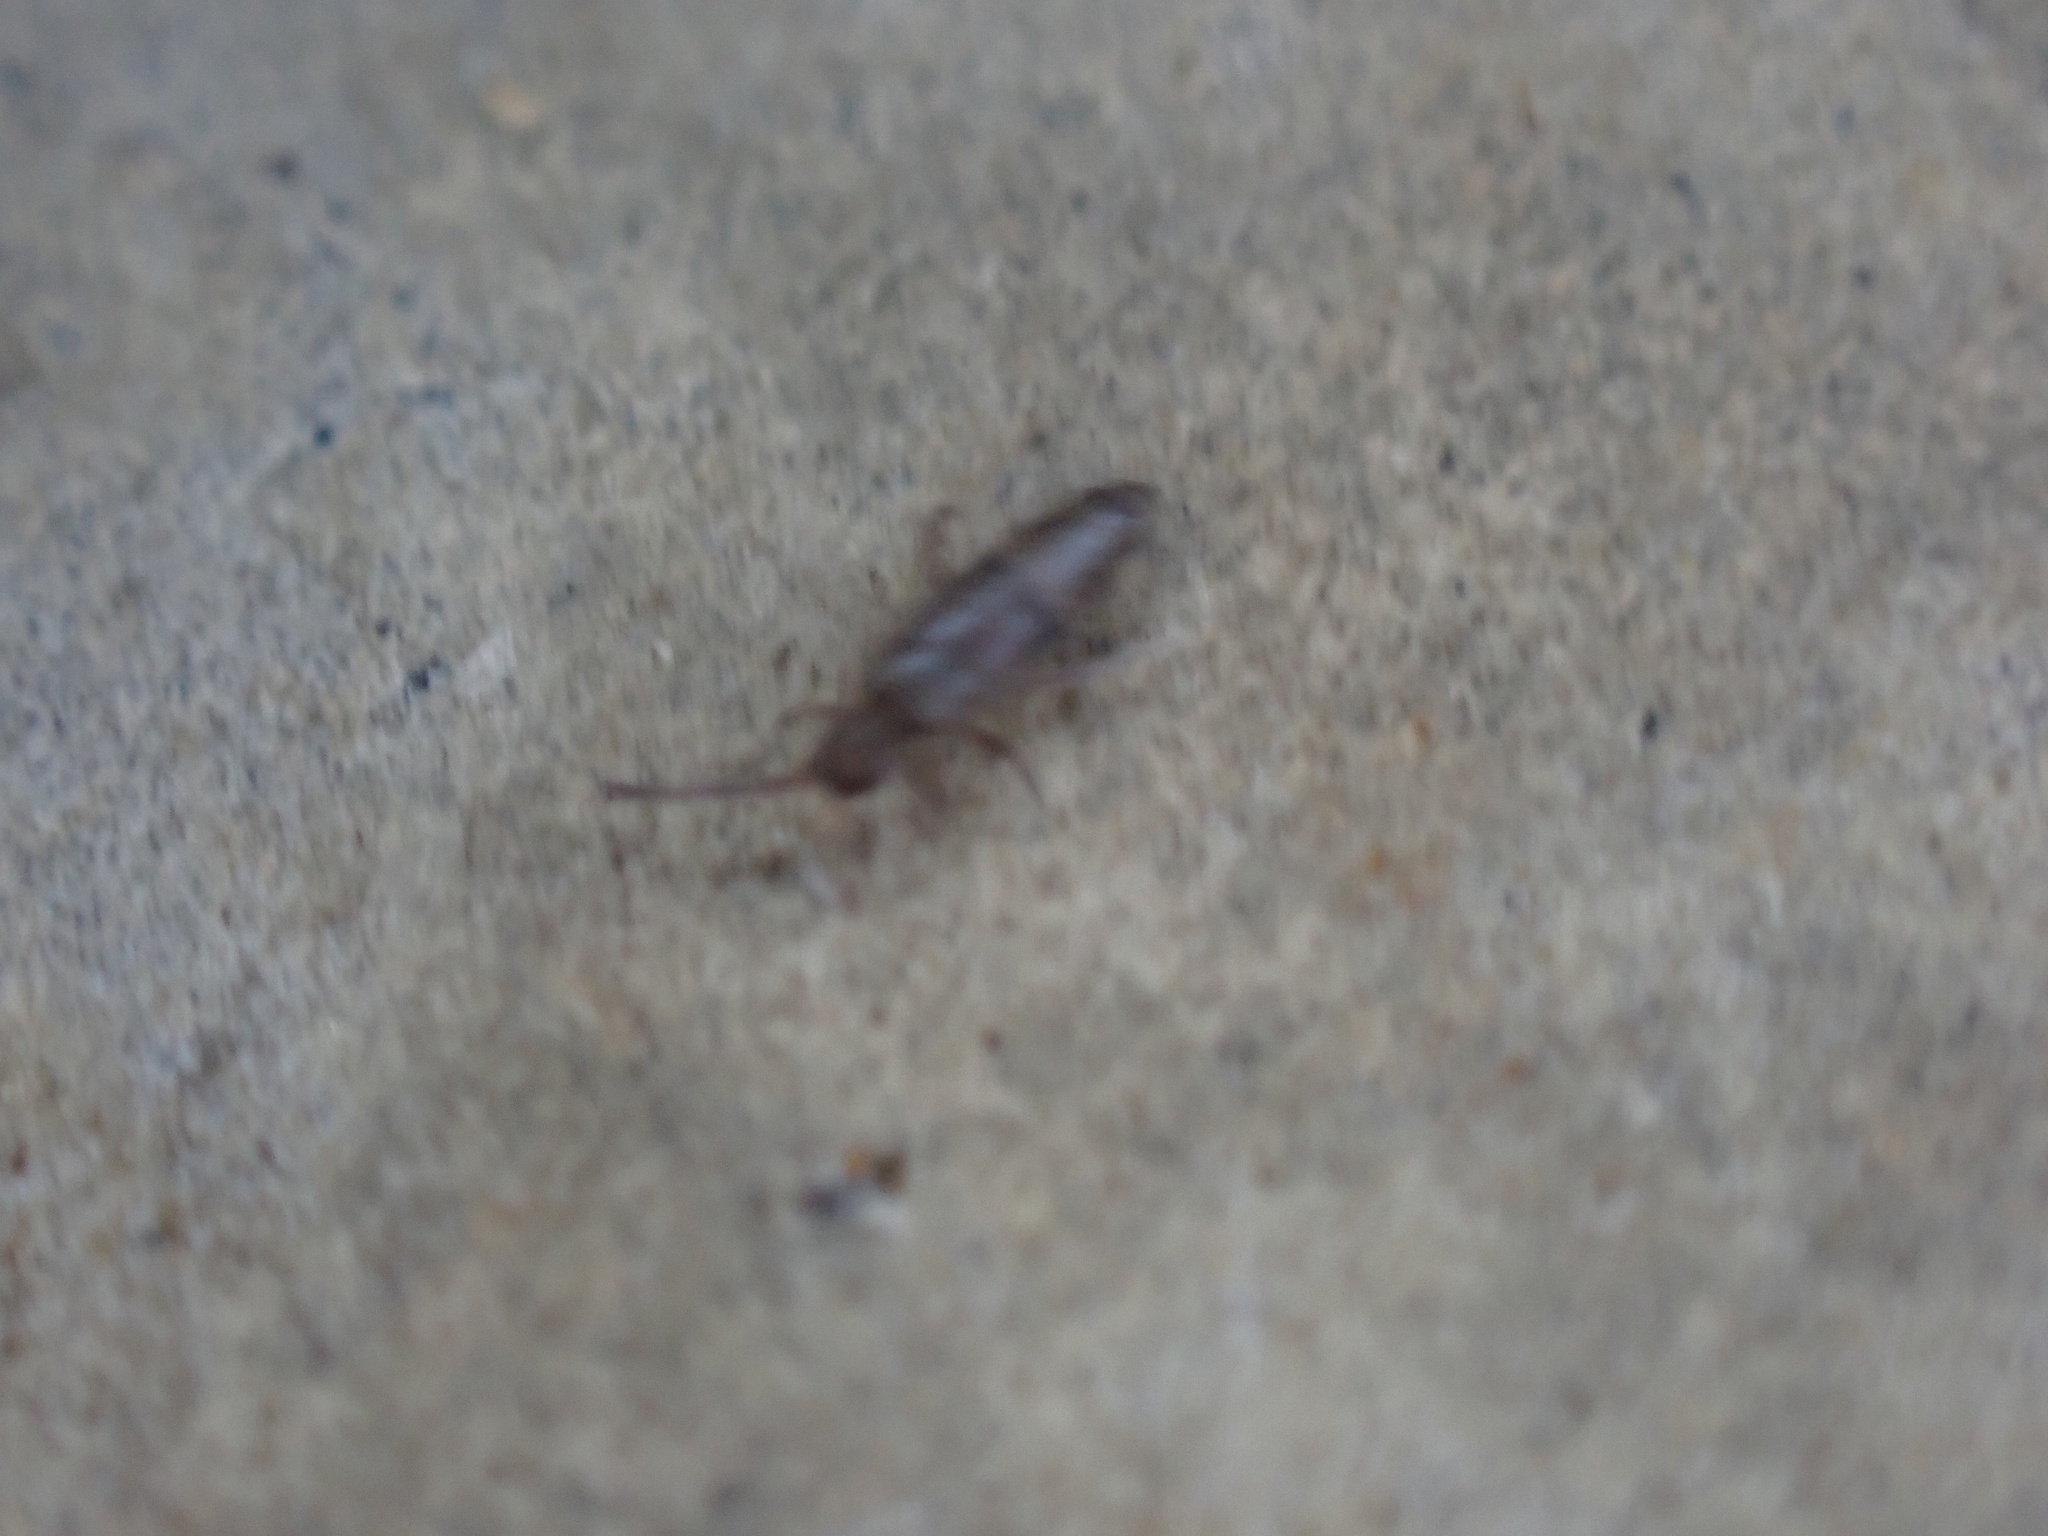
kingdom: Animalia
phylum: Arthropoda
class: Collembola
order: Entomobryomorpha
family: Entomobryidae
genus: Willowsia
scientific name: Willowsia nigromaculata
